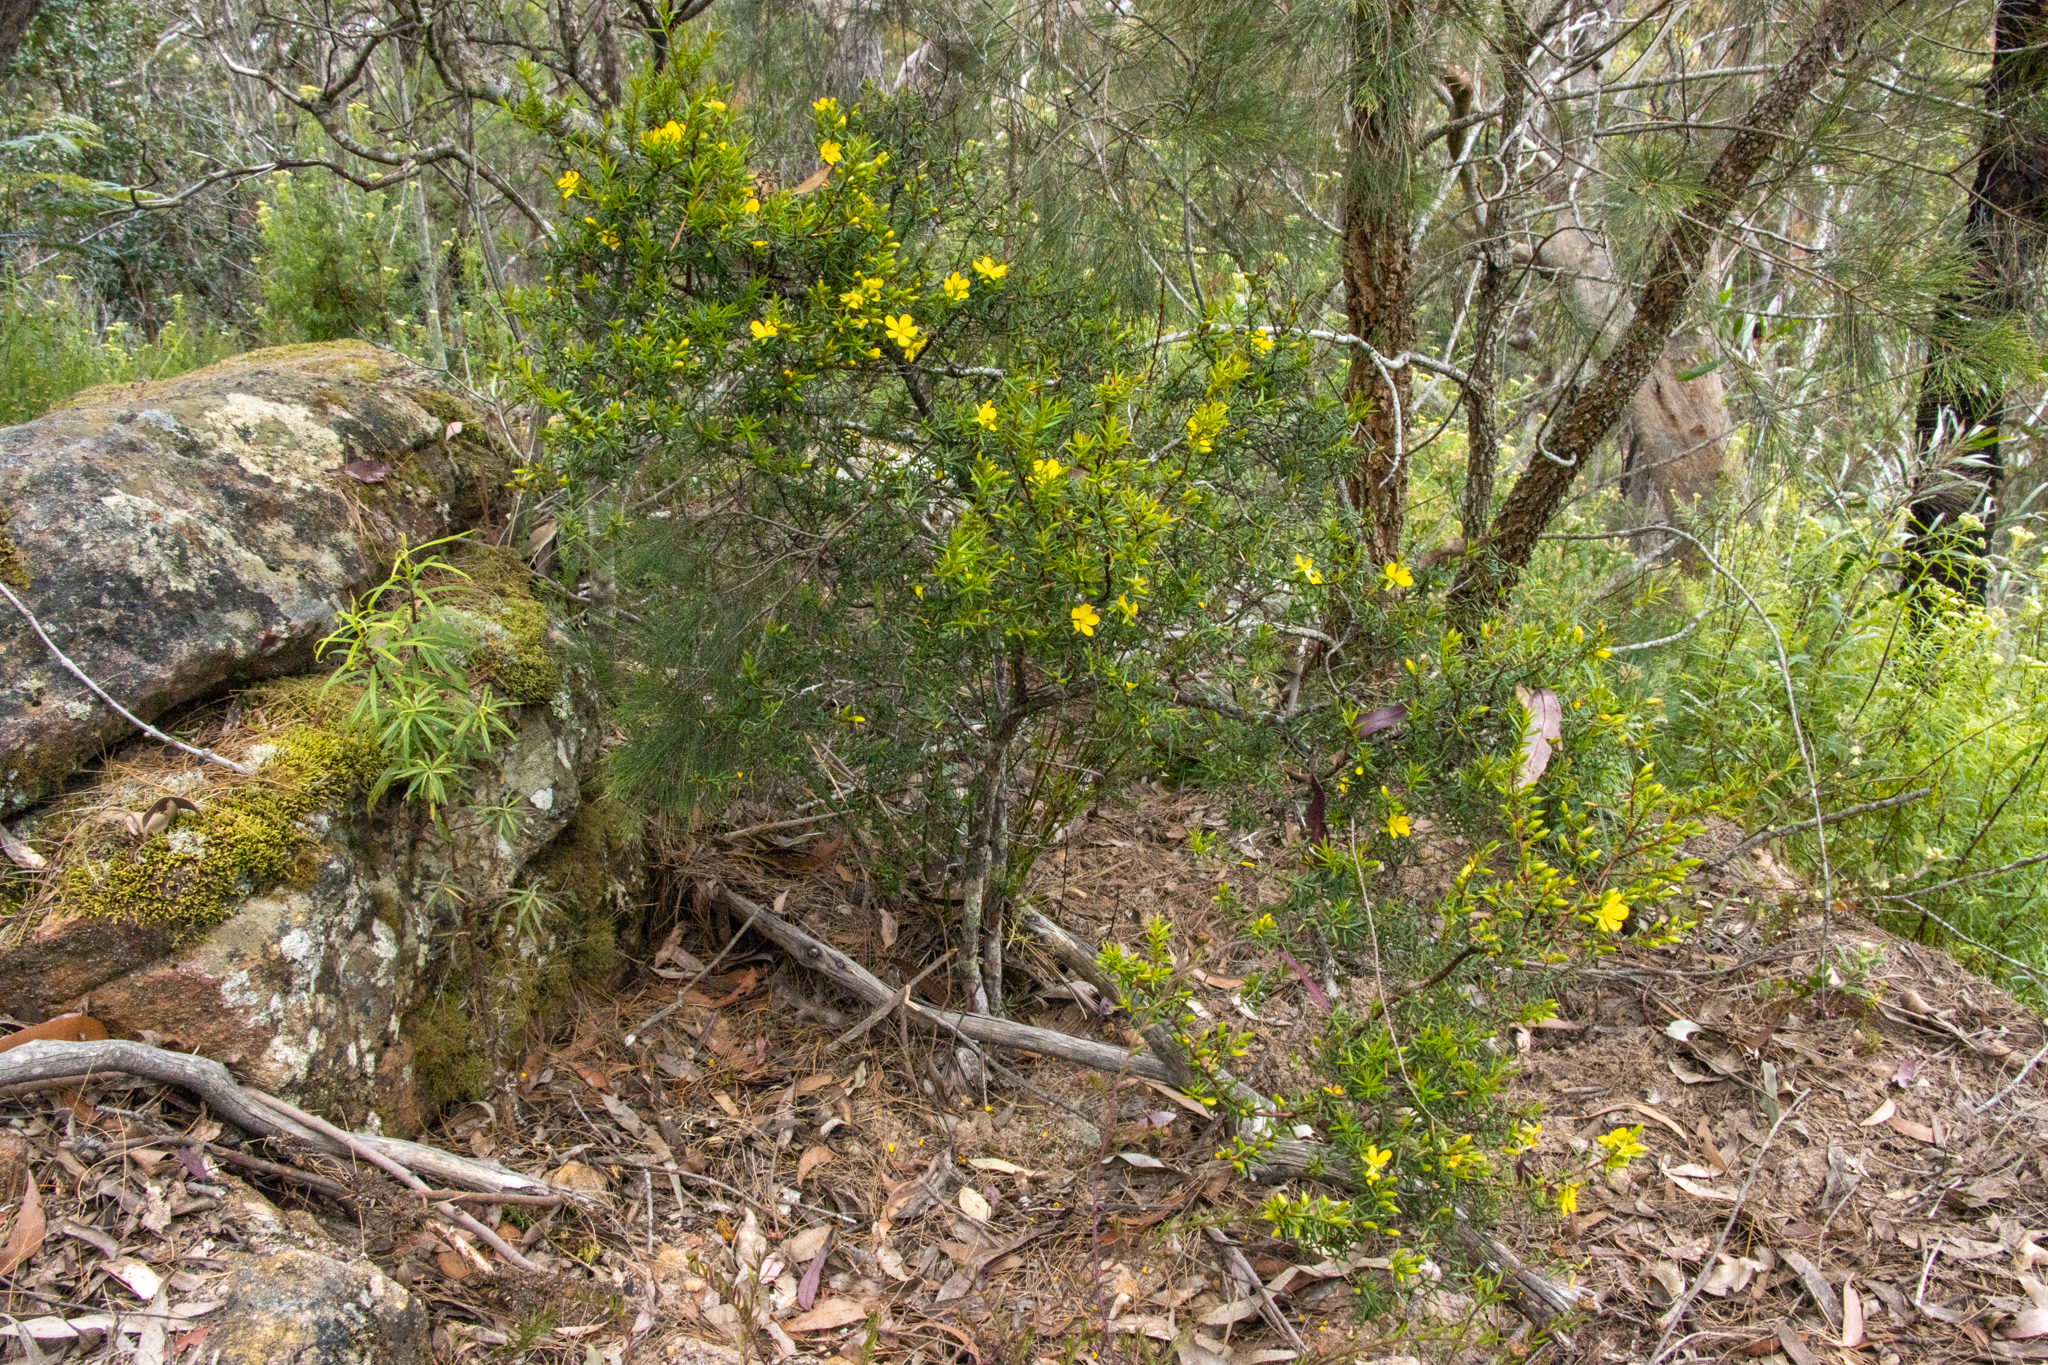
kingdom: Plantae
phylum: Tracheophyta
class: Magnoliopsida
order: Dilleniales
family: Dilleniaceae
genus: Hibbertia
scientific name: Hibbertia
